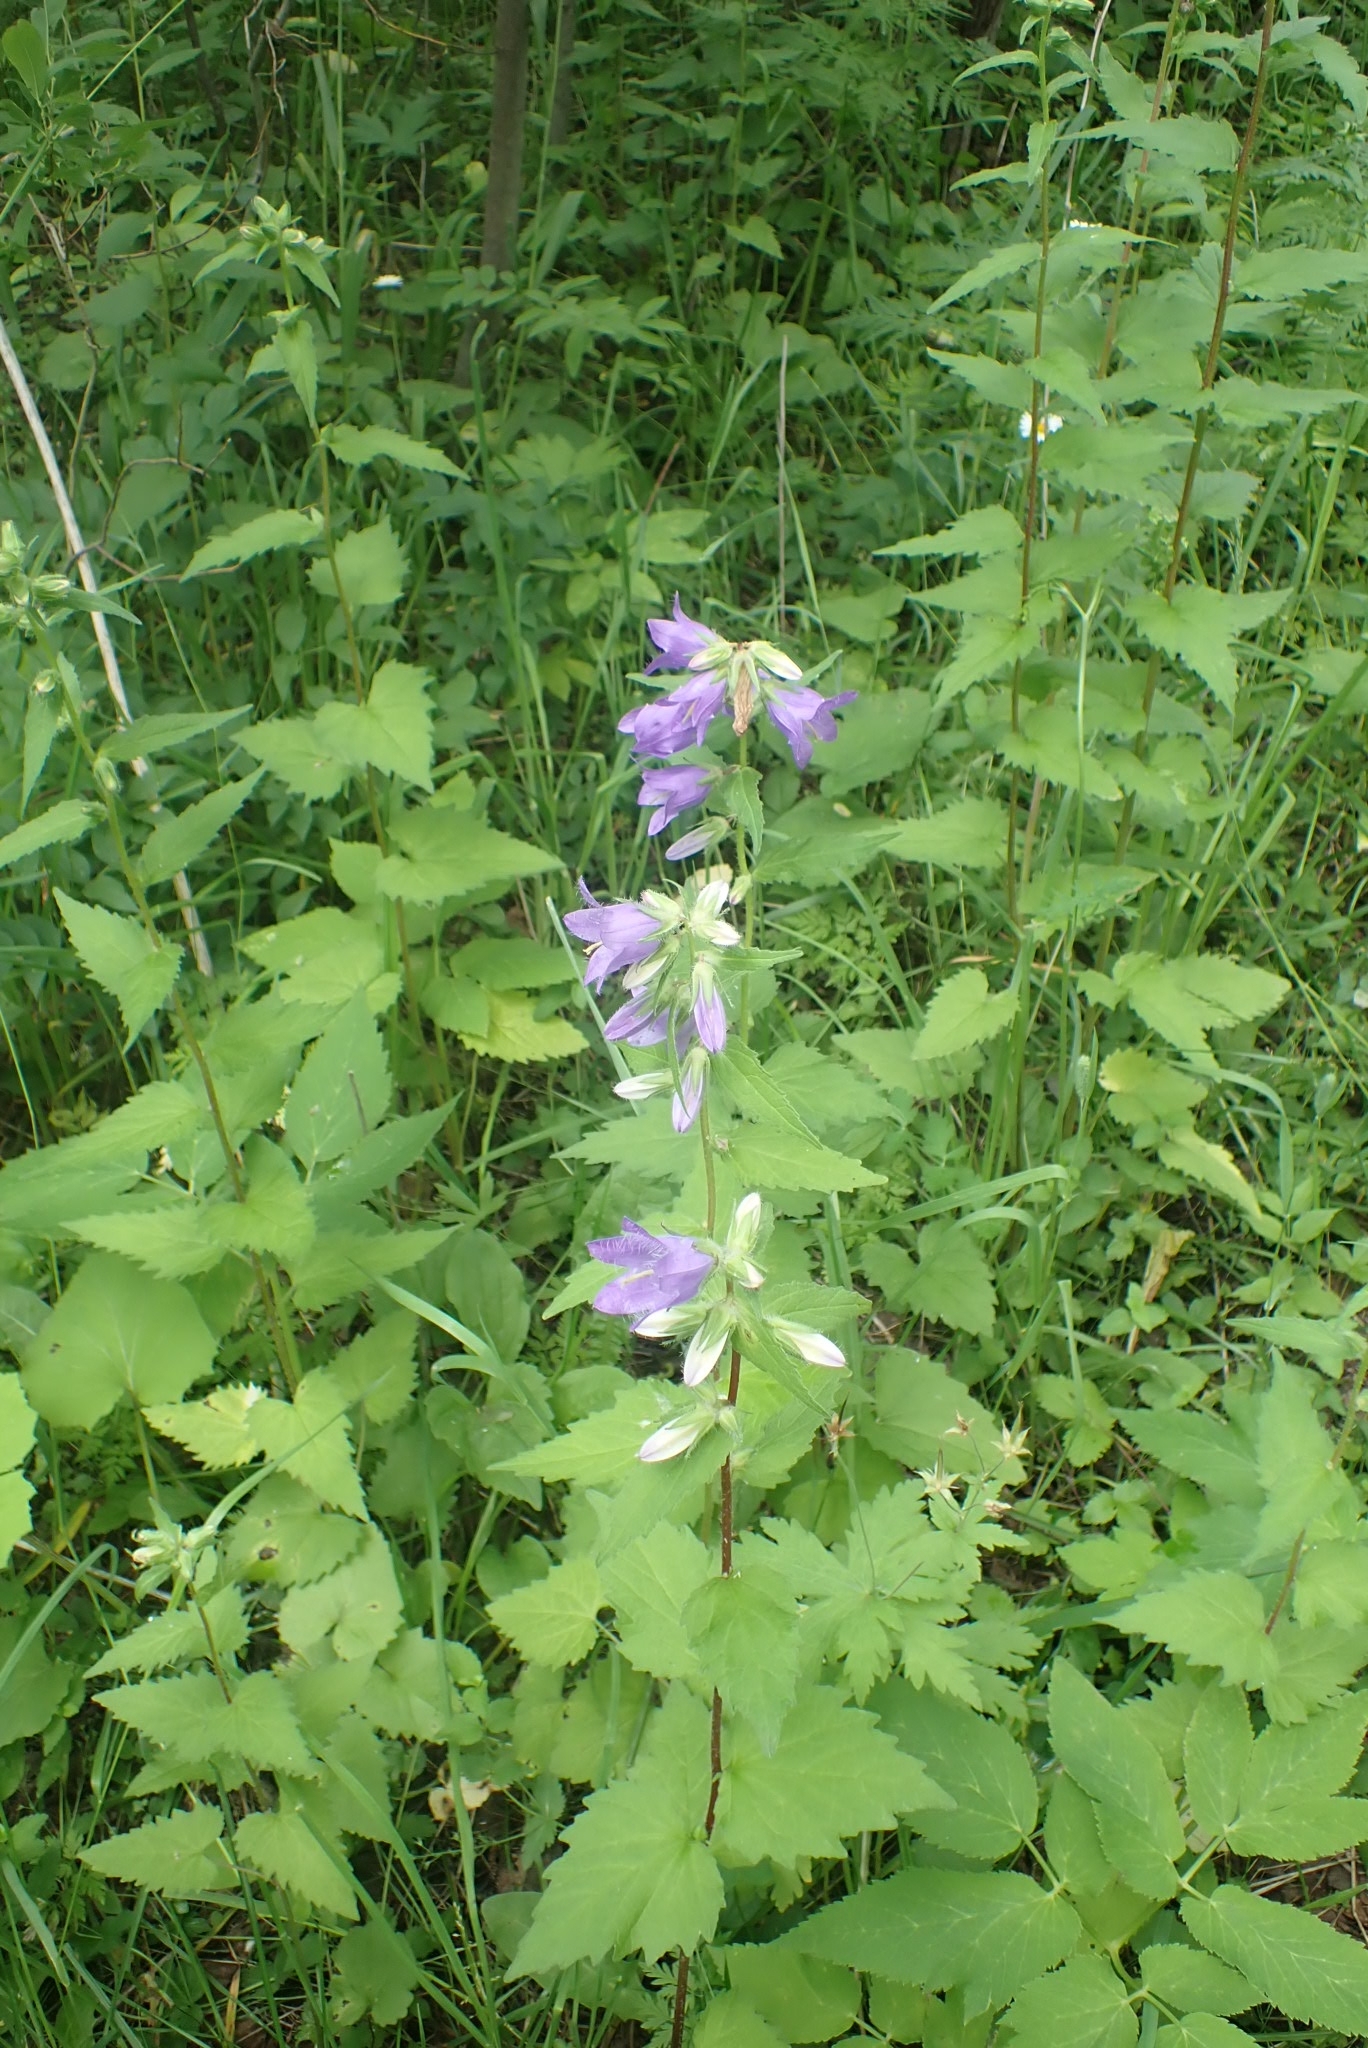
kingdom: Plantae
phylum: Tracheophyta
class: Magnoliopsida
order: Asterales
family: Campanulaceae
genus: Campanula
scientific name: Campanula trachelium
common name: Nettle-leaved bellflower
